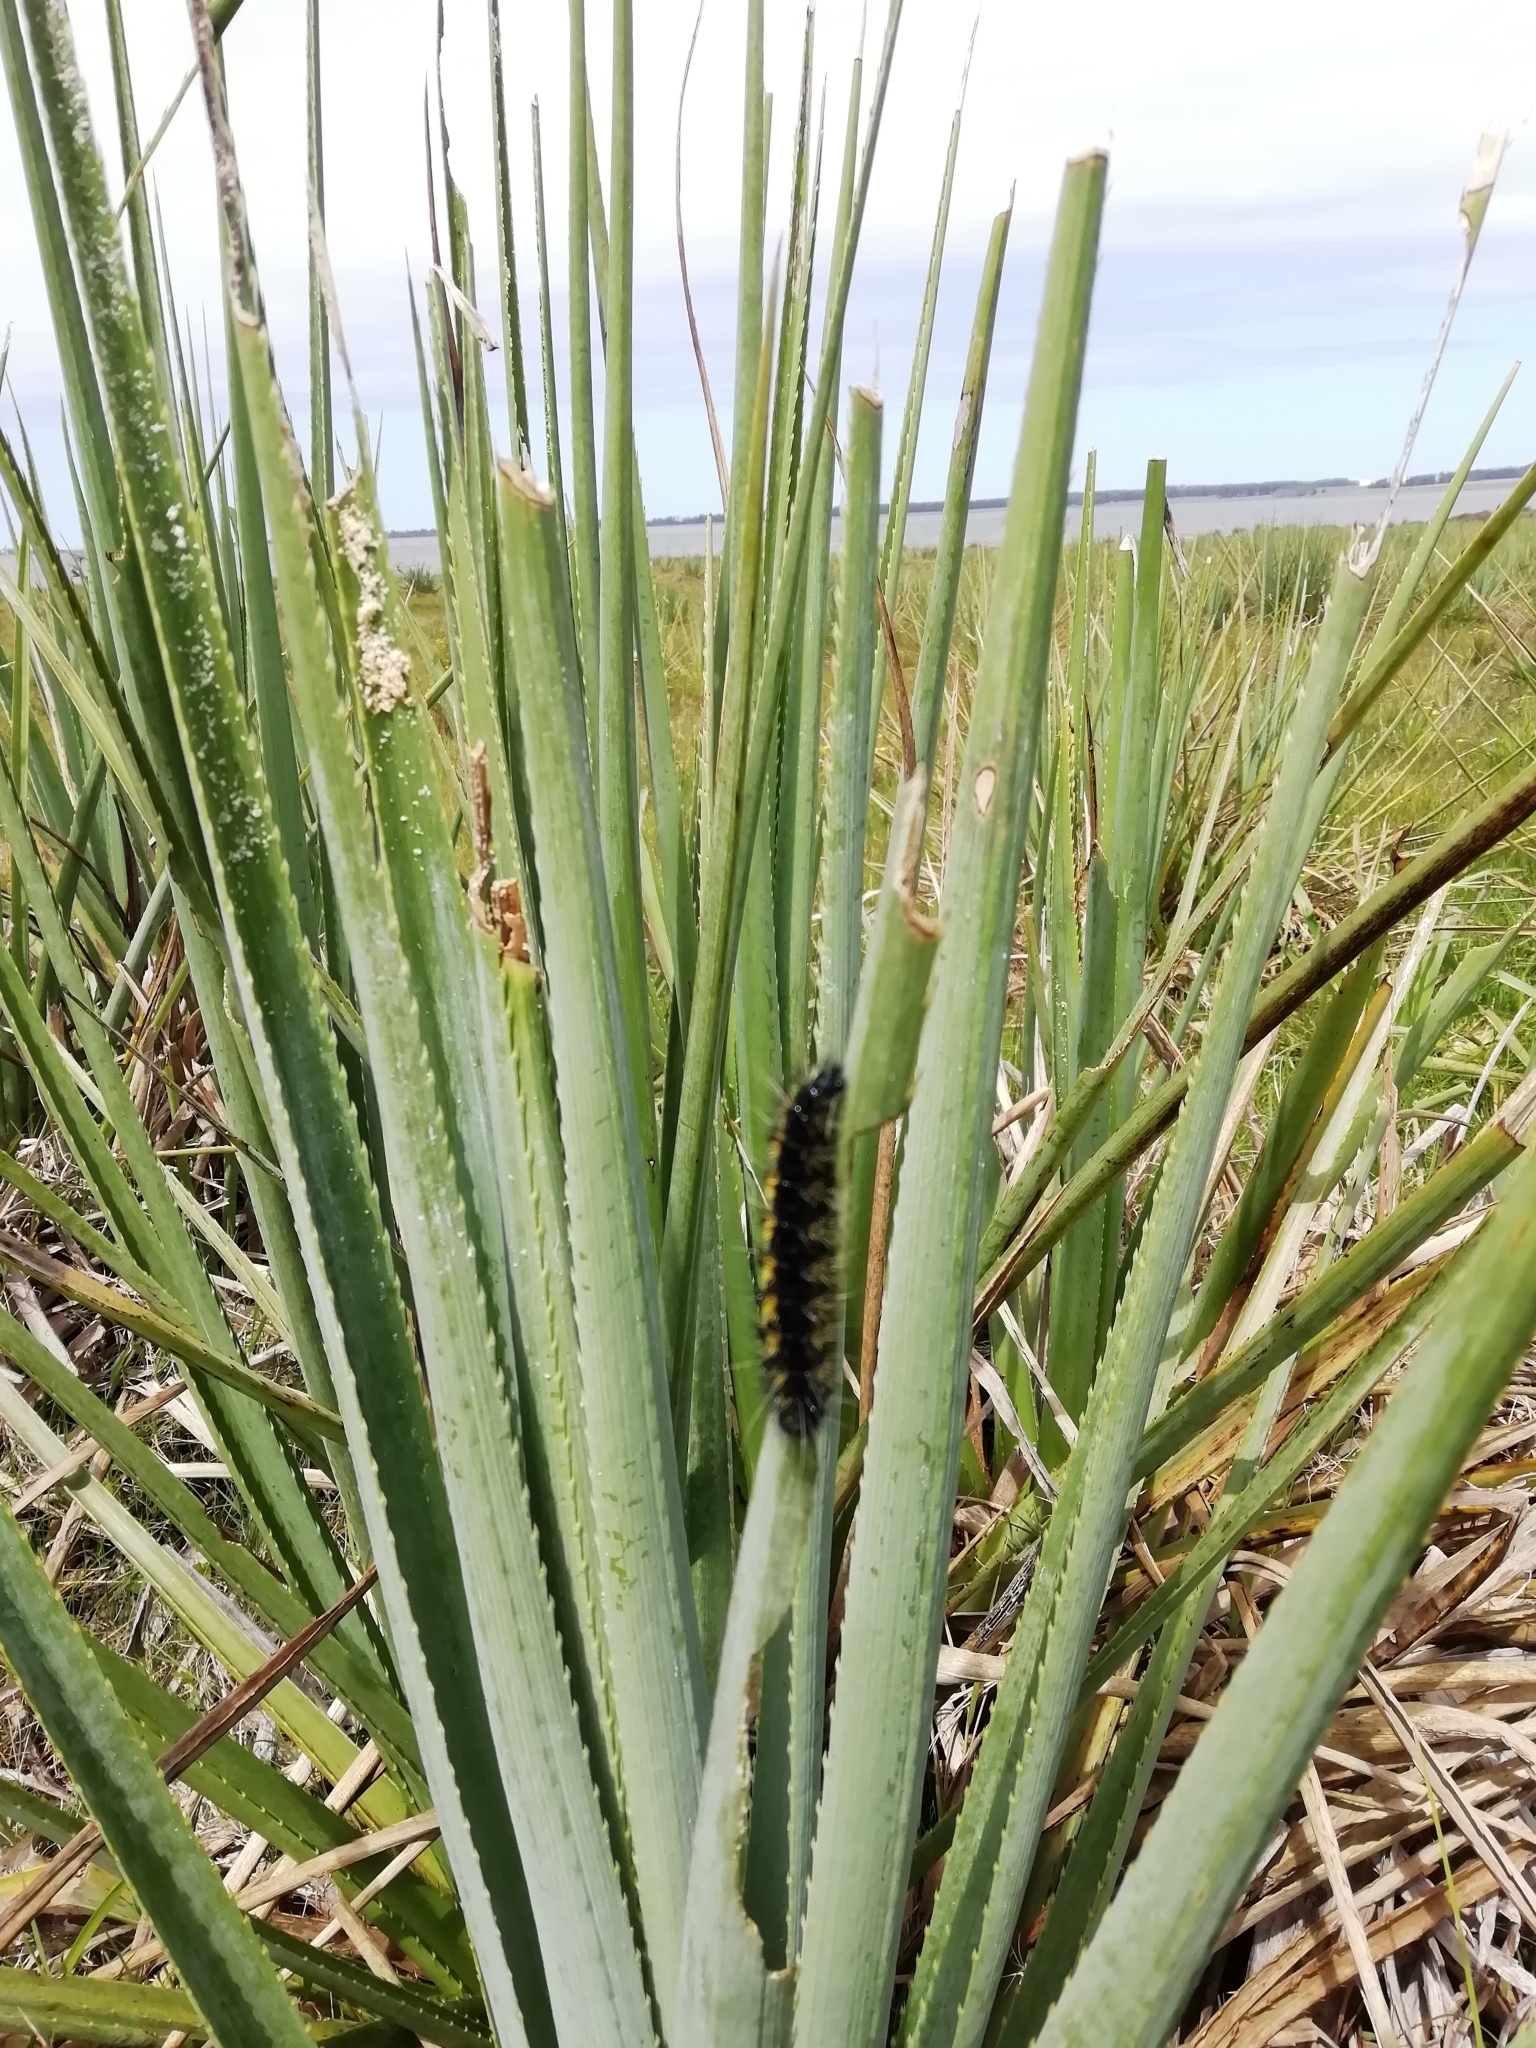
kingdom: Plantae
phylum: Tracheophyta
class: Magnoliopsida
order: Apiales
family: Apiaceae
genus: Eryngium
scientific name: Eryngium pandanifolium
